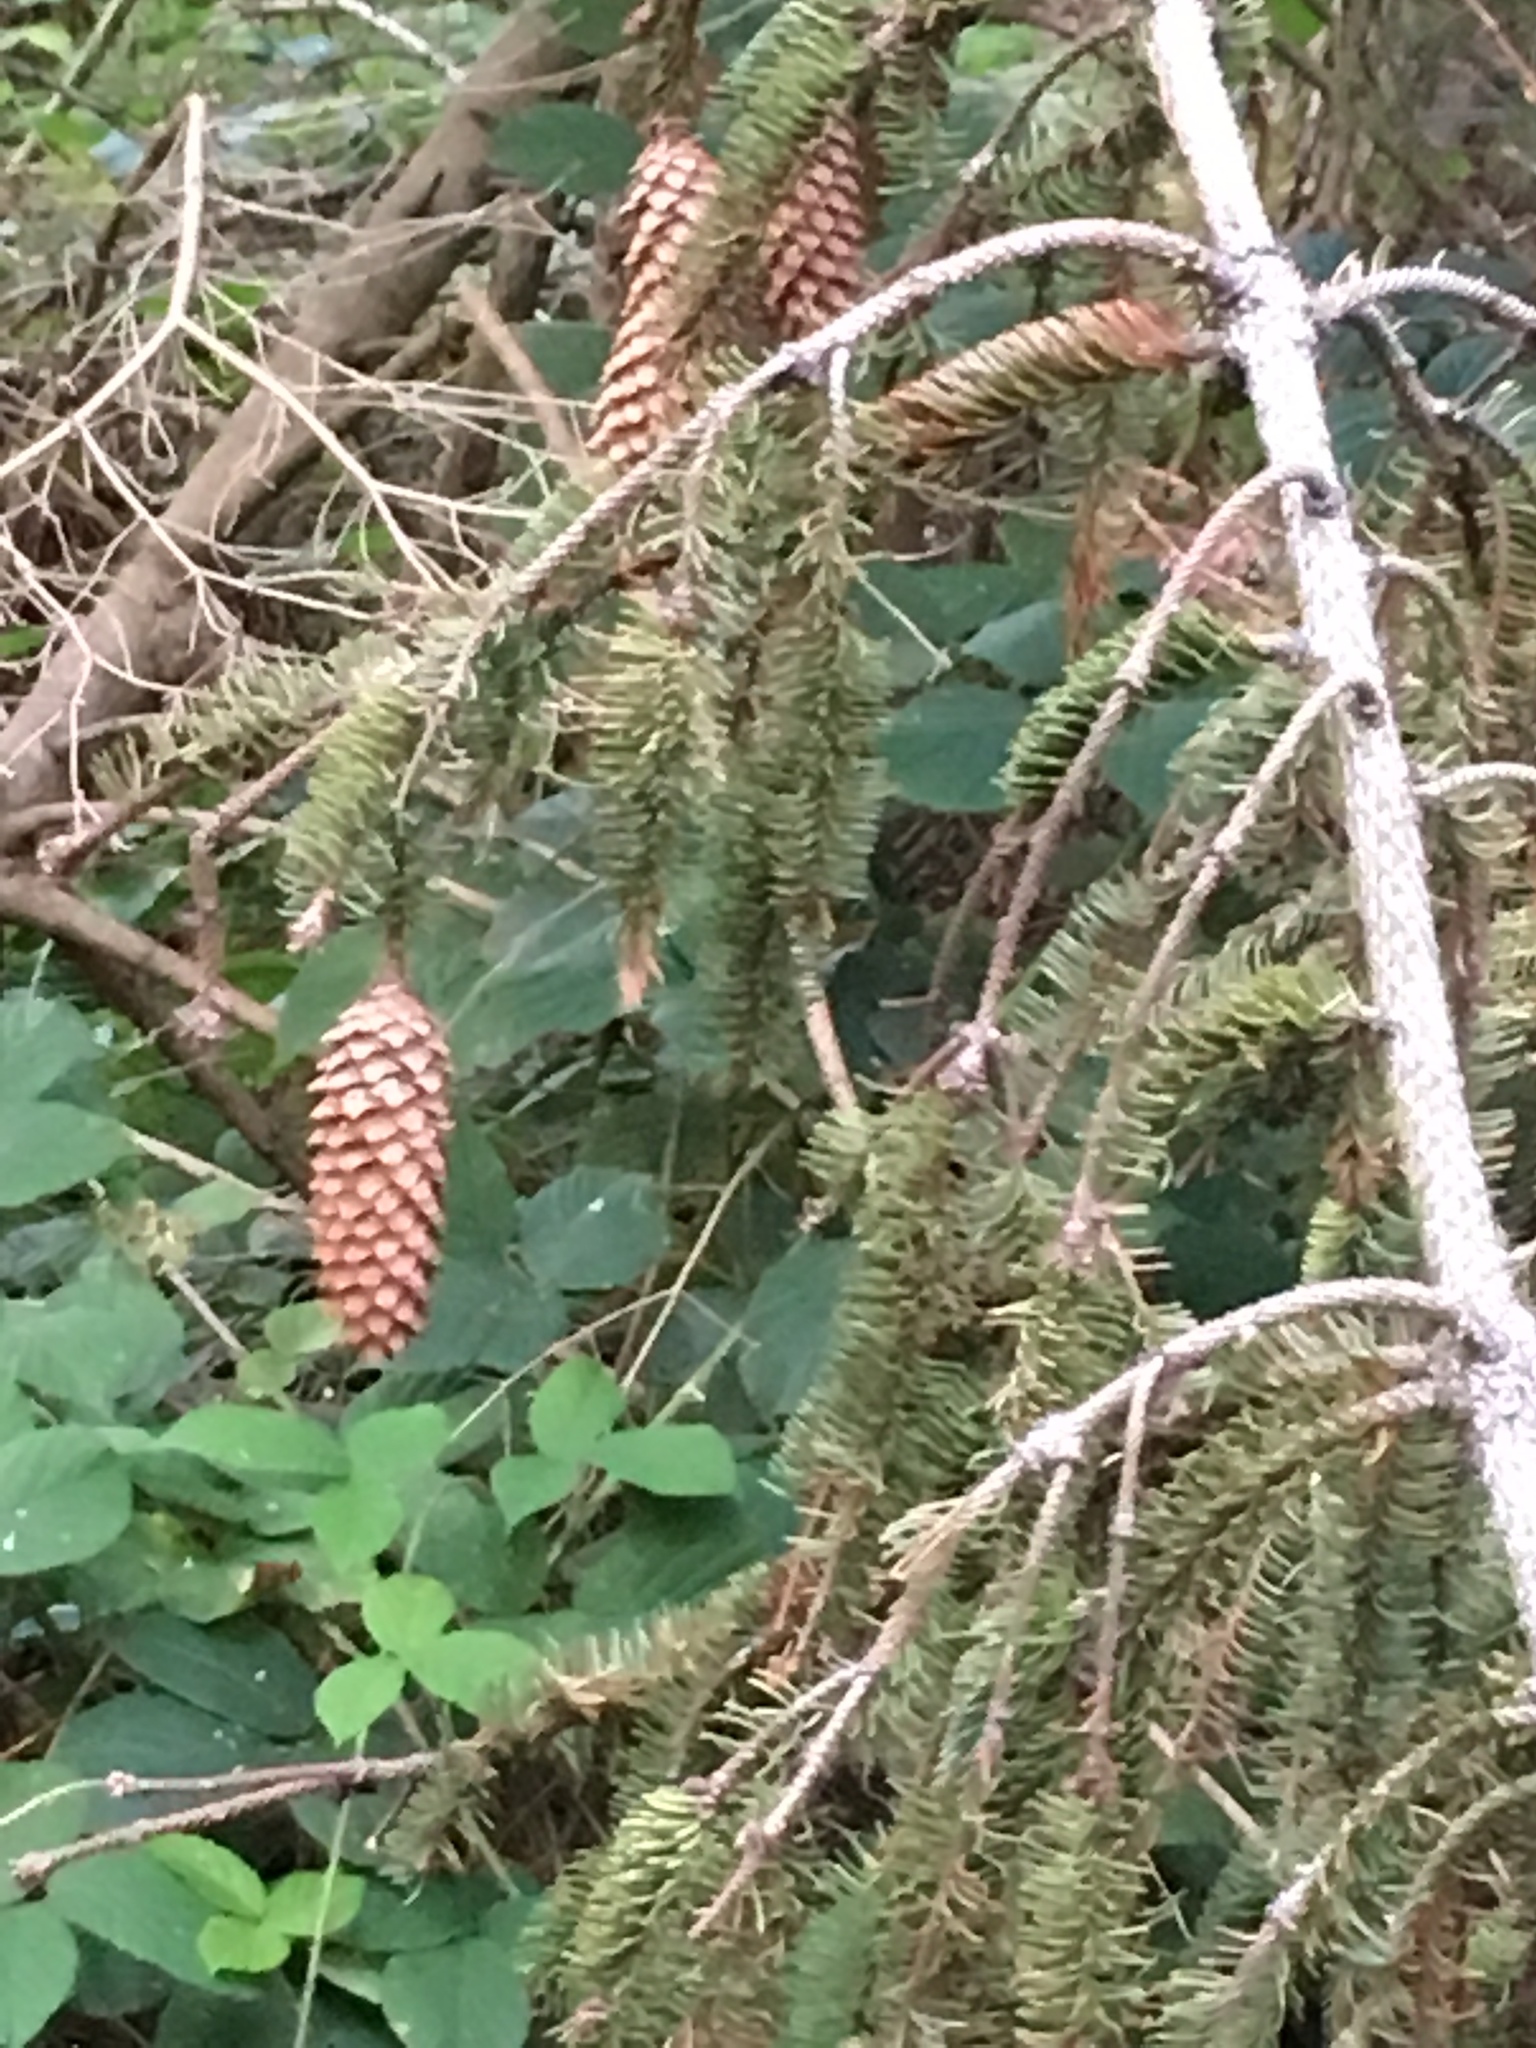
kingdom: Plantae
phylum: Tracheophyta
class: Pinopsida
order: Pinales
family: Pinaceae
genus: Picea
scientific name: Picea abies
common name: Norway spruce
